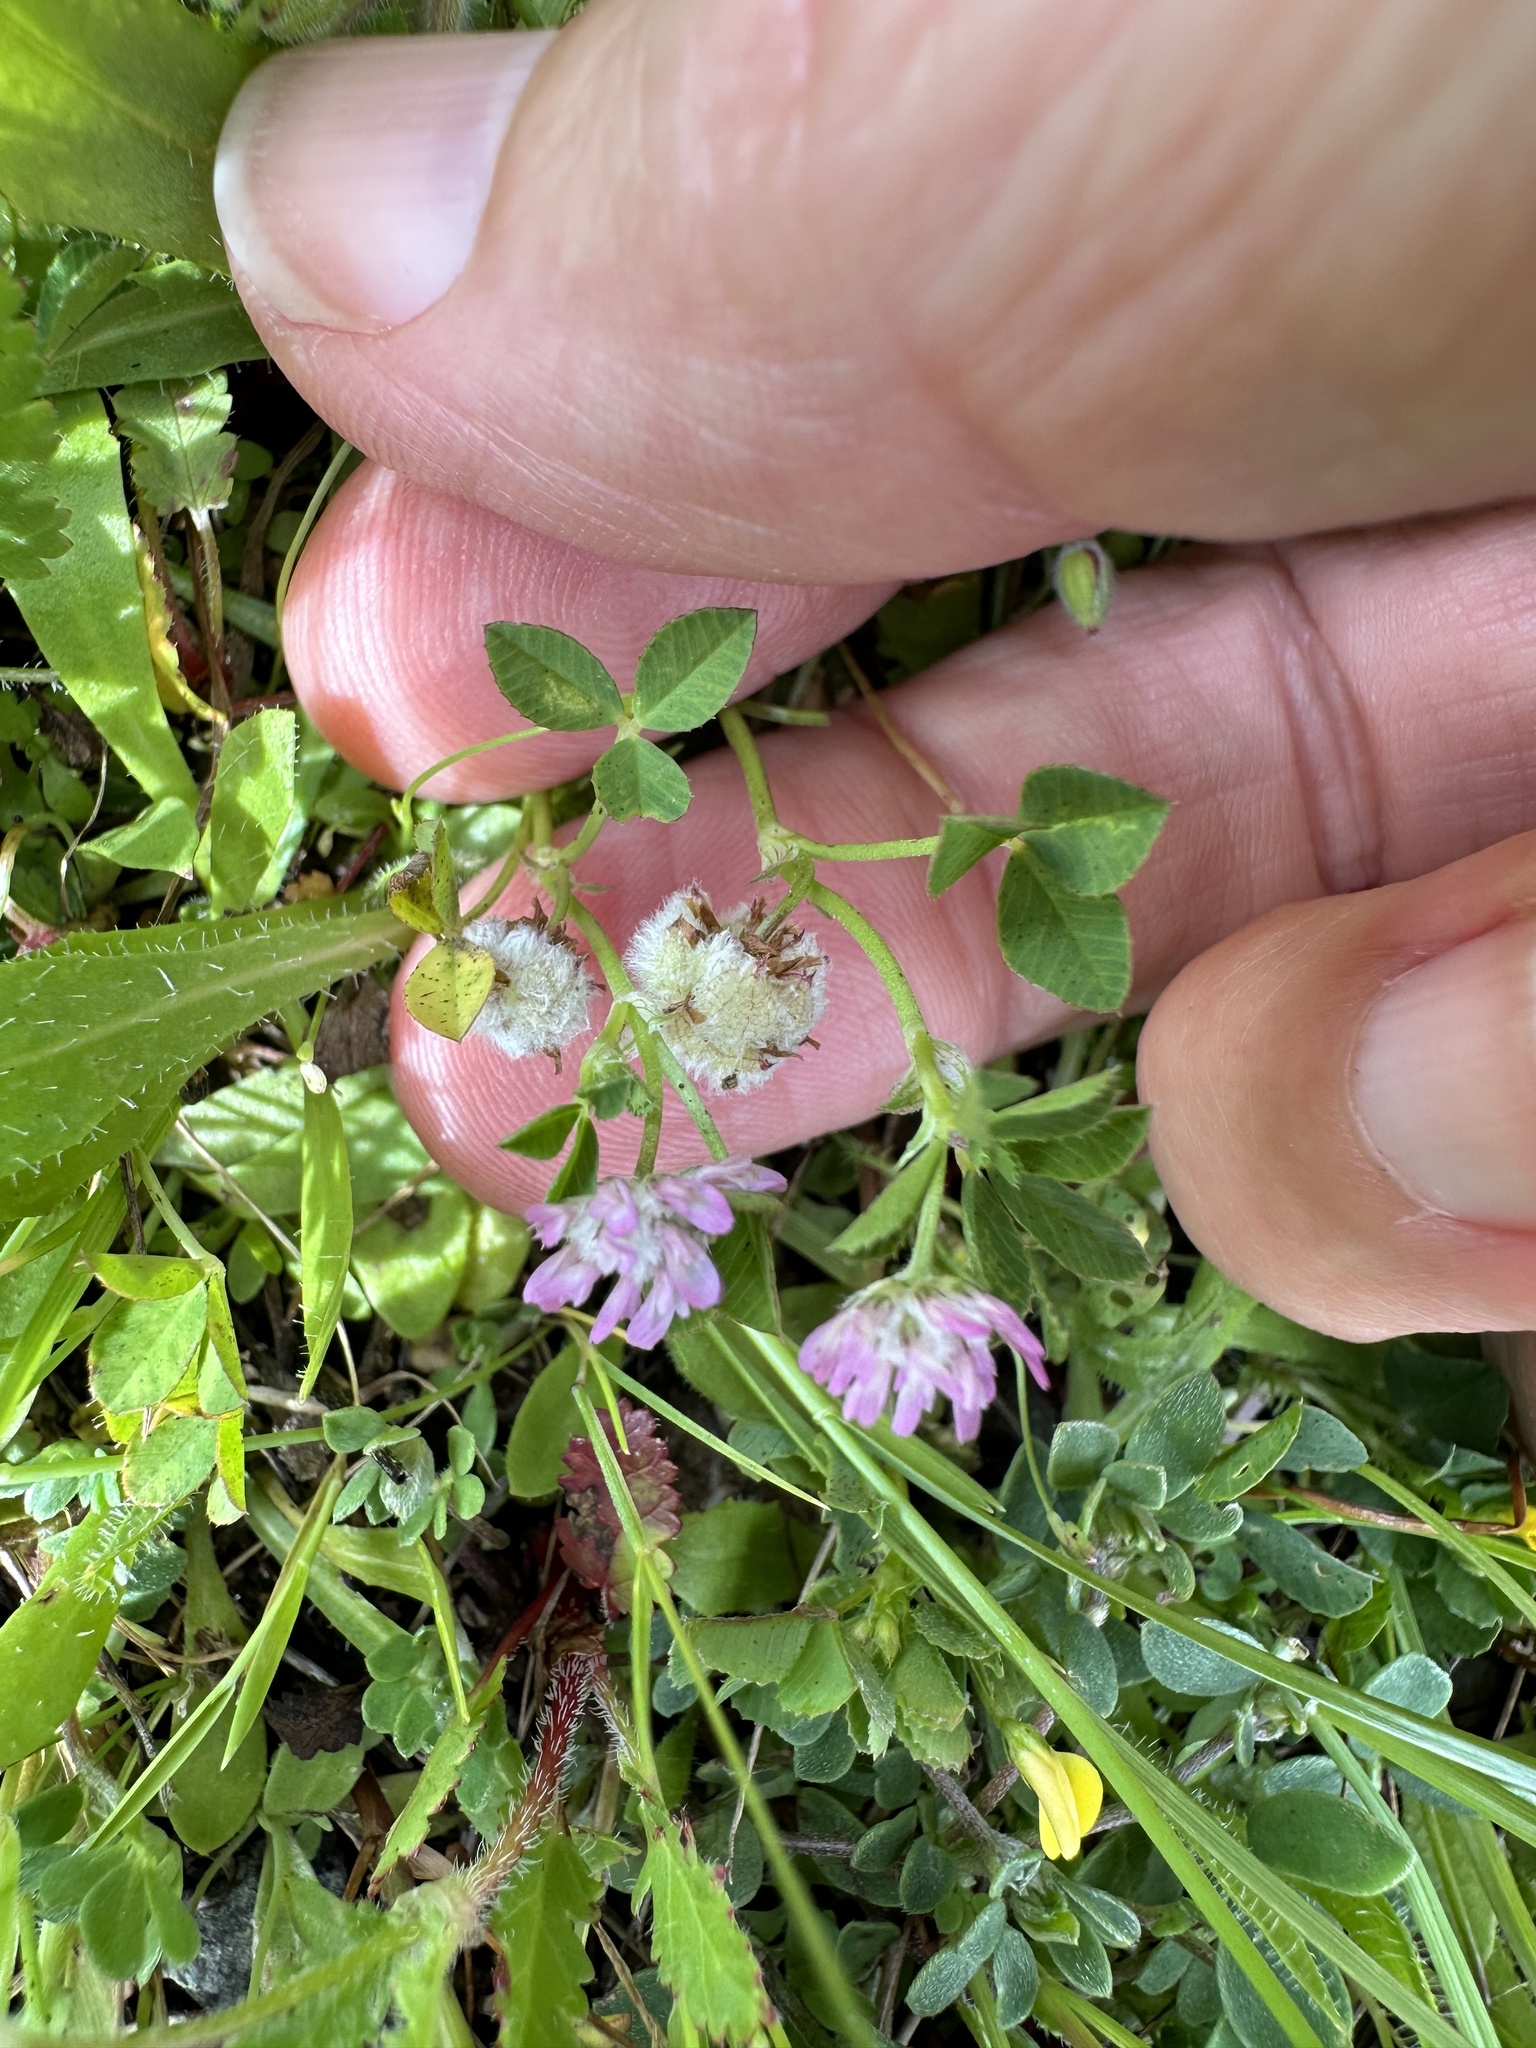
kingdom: Plantae
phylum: Tracheophyta
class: Magnoliopsida
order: Fabales
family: Fabaceae
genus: Trifolium
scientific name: Trifolium tomentosum
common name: Woolly clover
